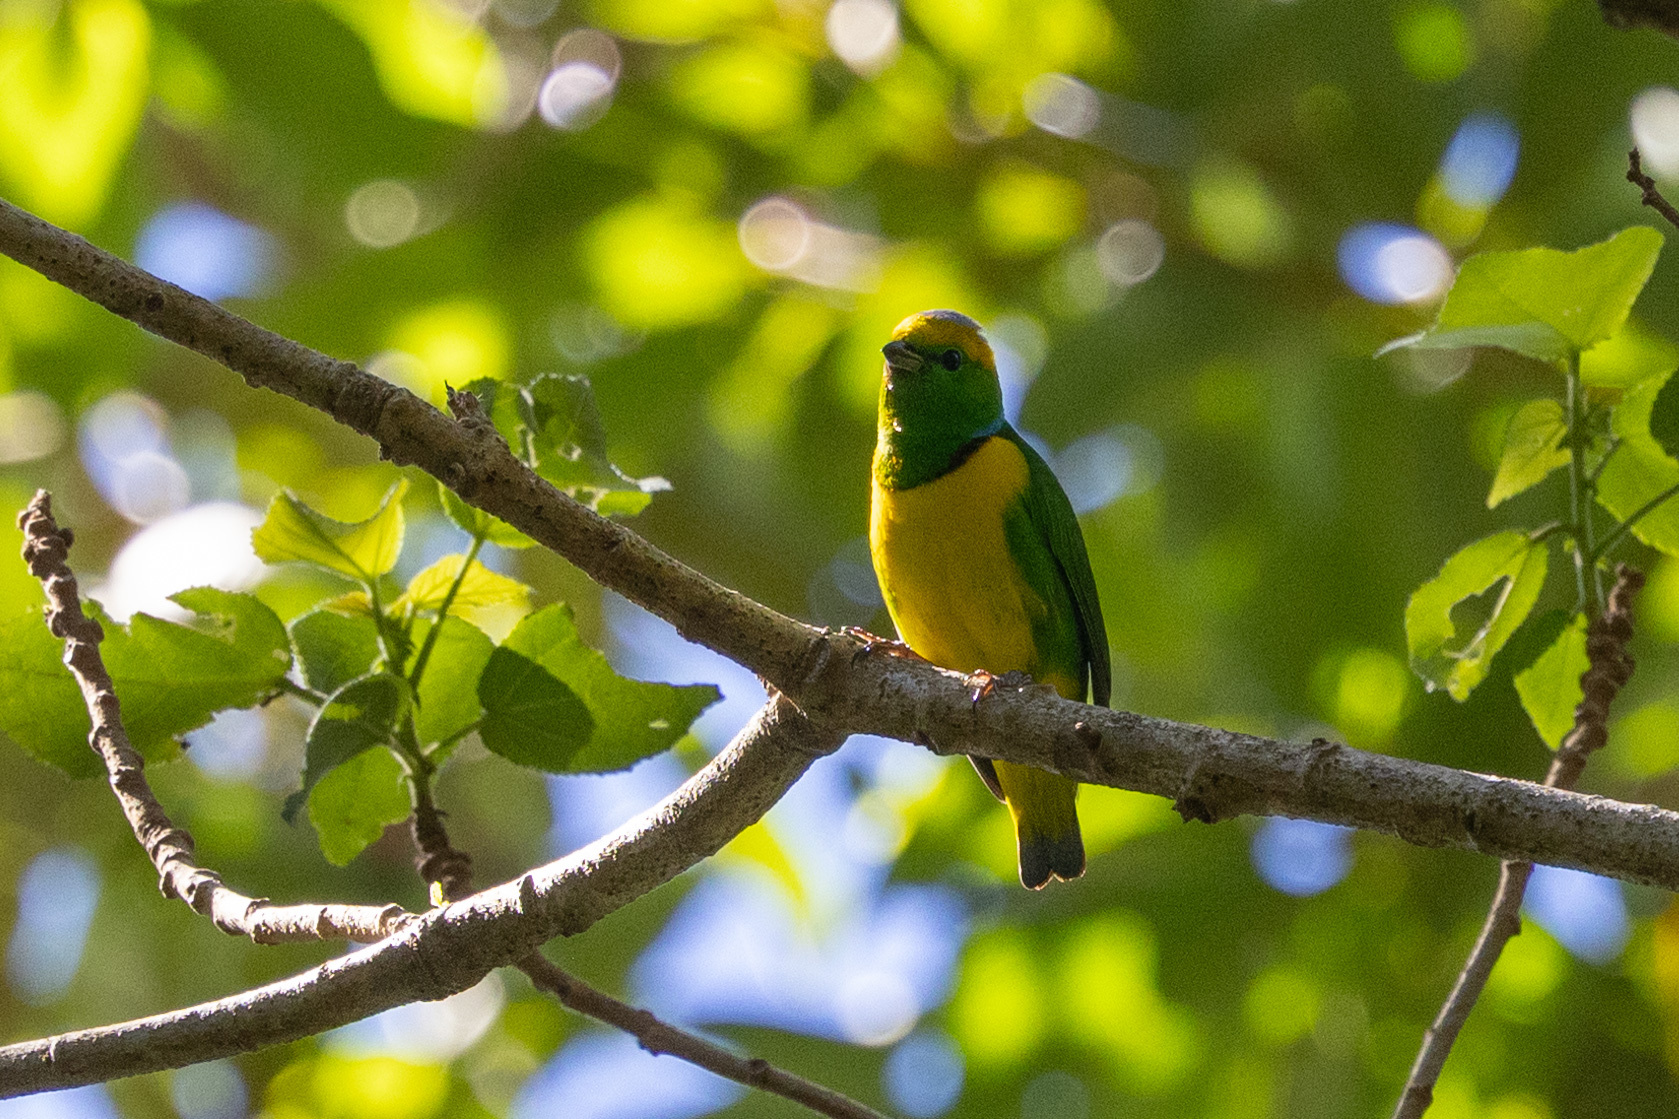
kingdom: Animalia
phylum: Chordata
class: Aves
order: Passeriformes
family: Fringillidae
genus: Chlorophonia
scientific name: Chlorophonia callophrys
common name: Golden-browed chlorophonia
